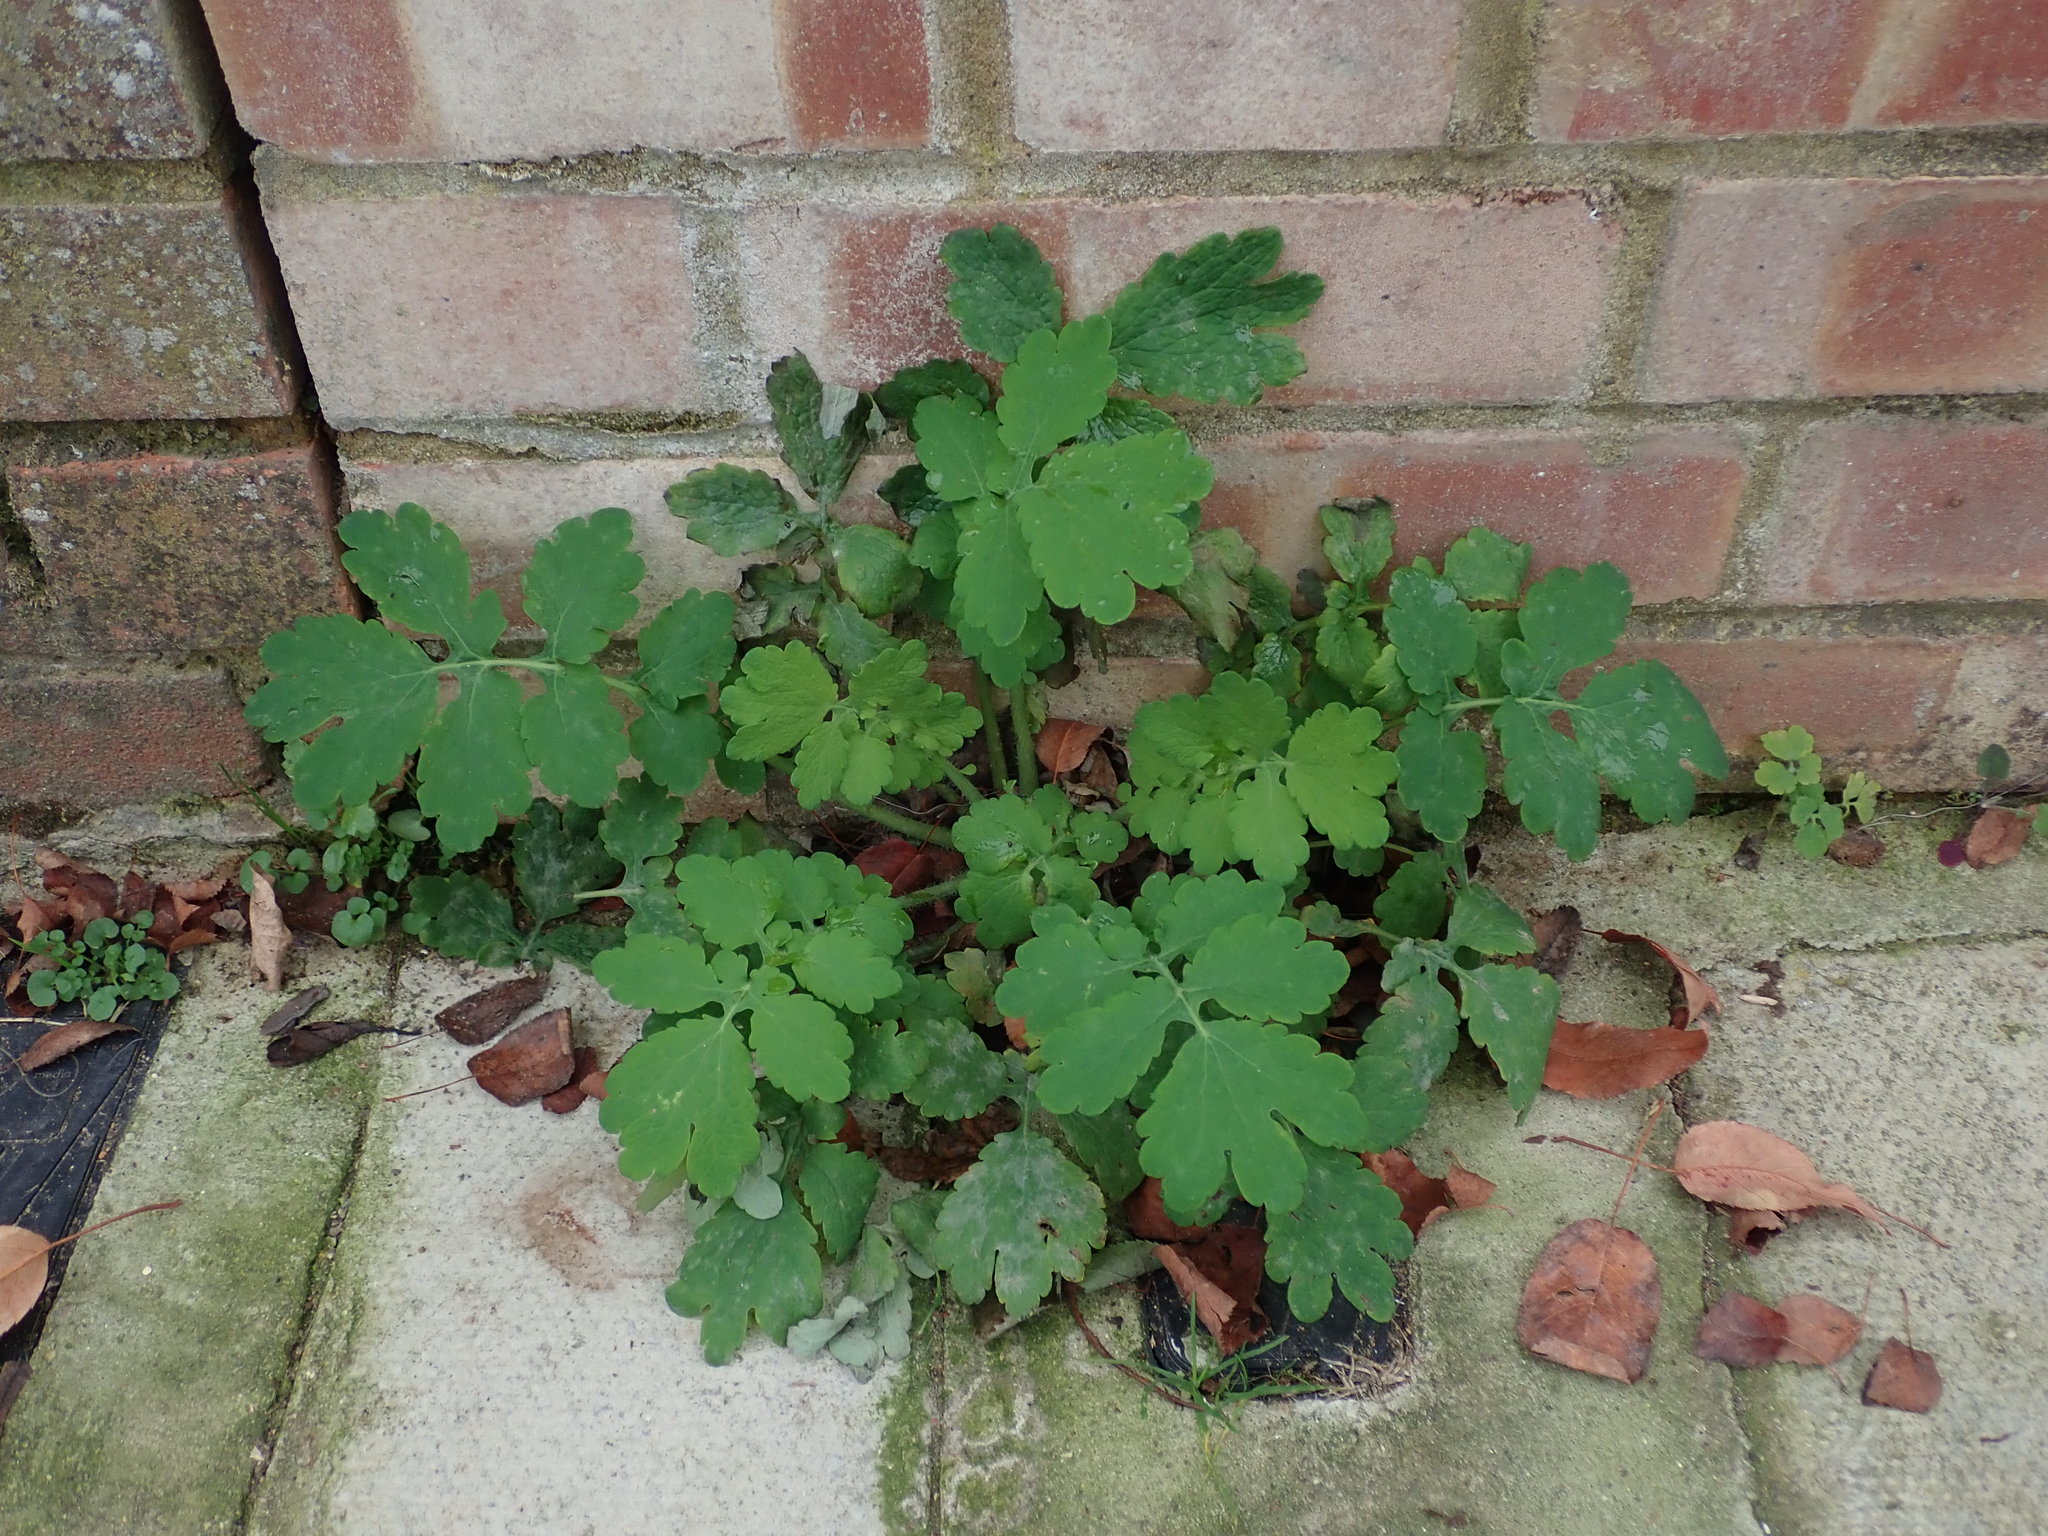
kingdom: Plantae
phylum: Tracheophyta
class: Magnoliopsida
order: Ranunculales
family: Papaveraceae
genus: Chelidonium
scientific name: Chelidonium majus
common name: Greater celandine
